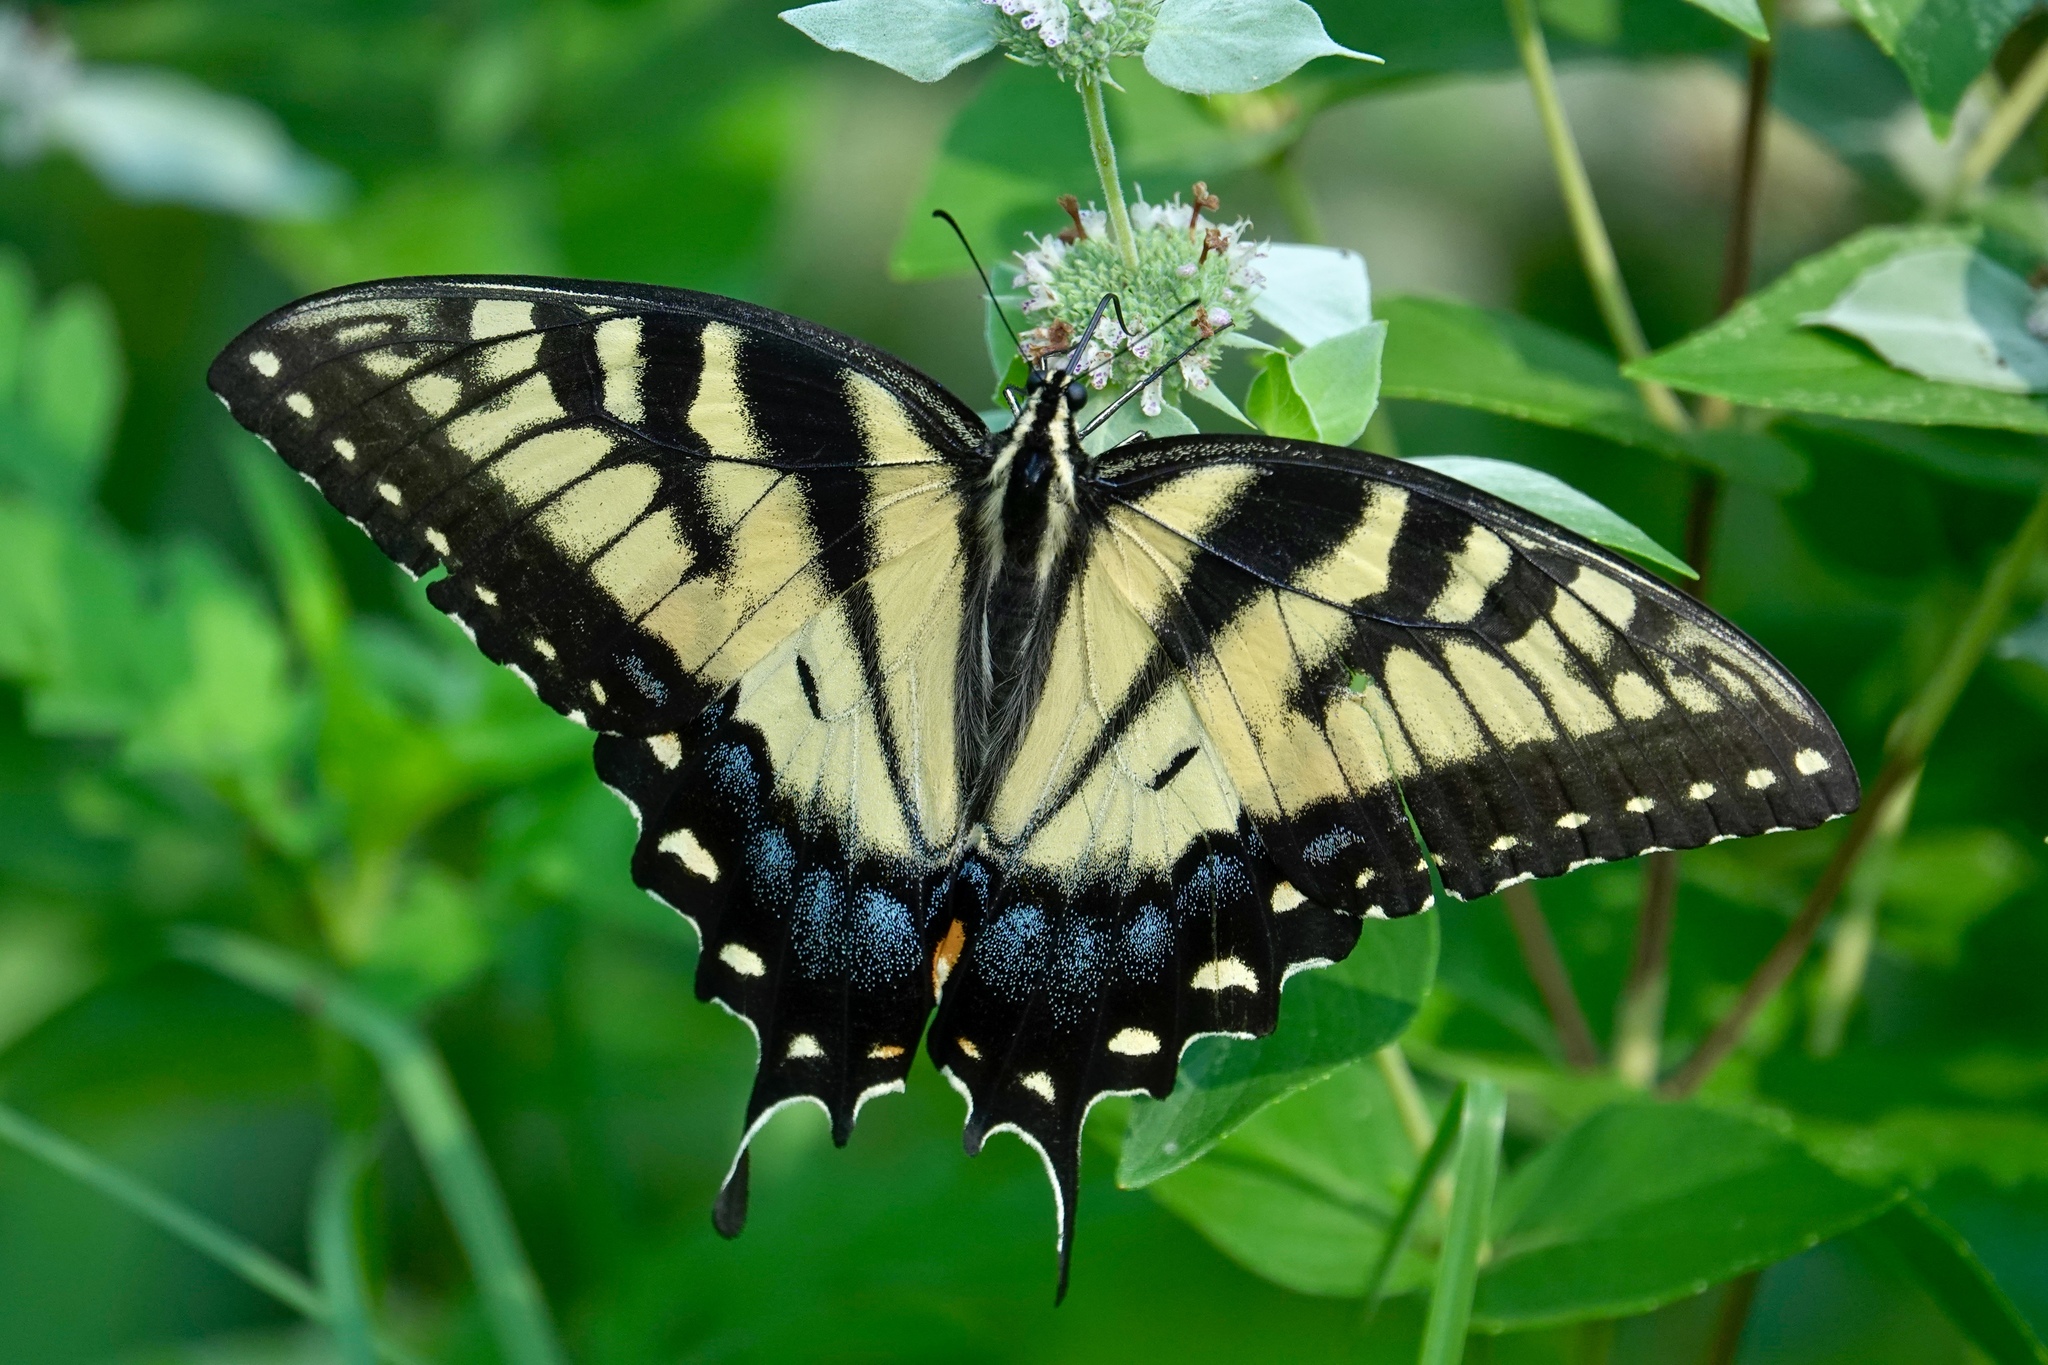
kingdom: Animalia
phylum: Arthropoda
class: Insecta
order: Lepidoptera
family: Papilionidae
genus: Papilio
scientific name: Papilio glaucus
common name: Tiger swallowtail
